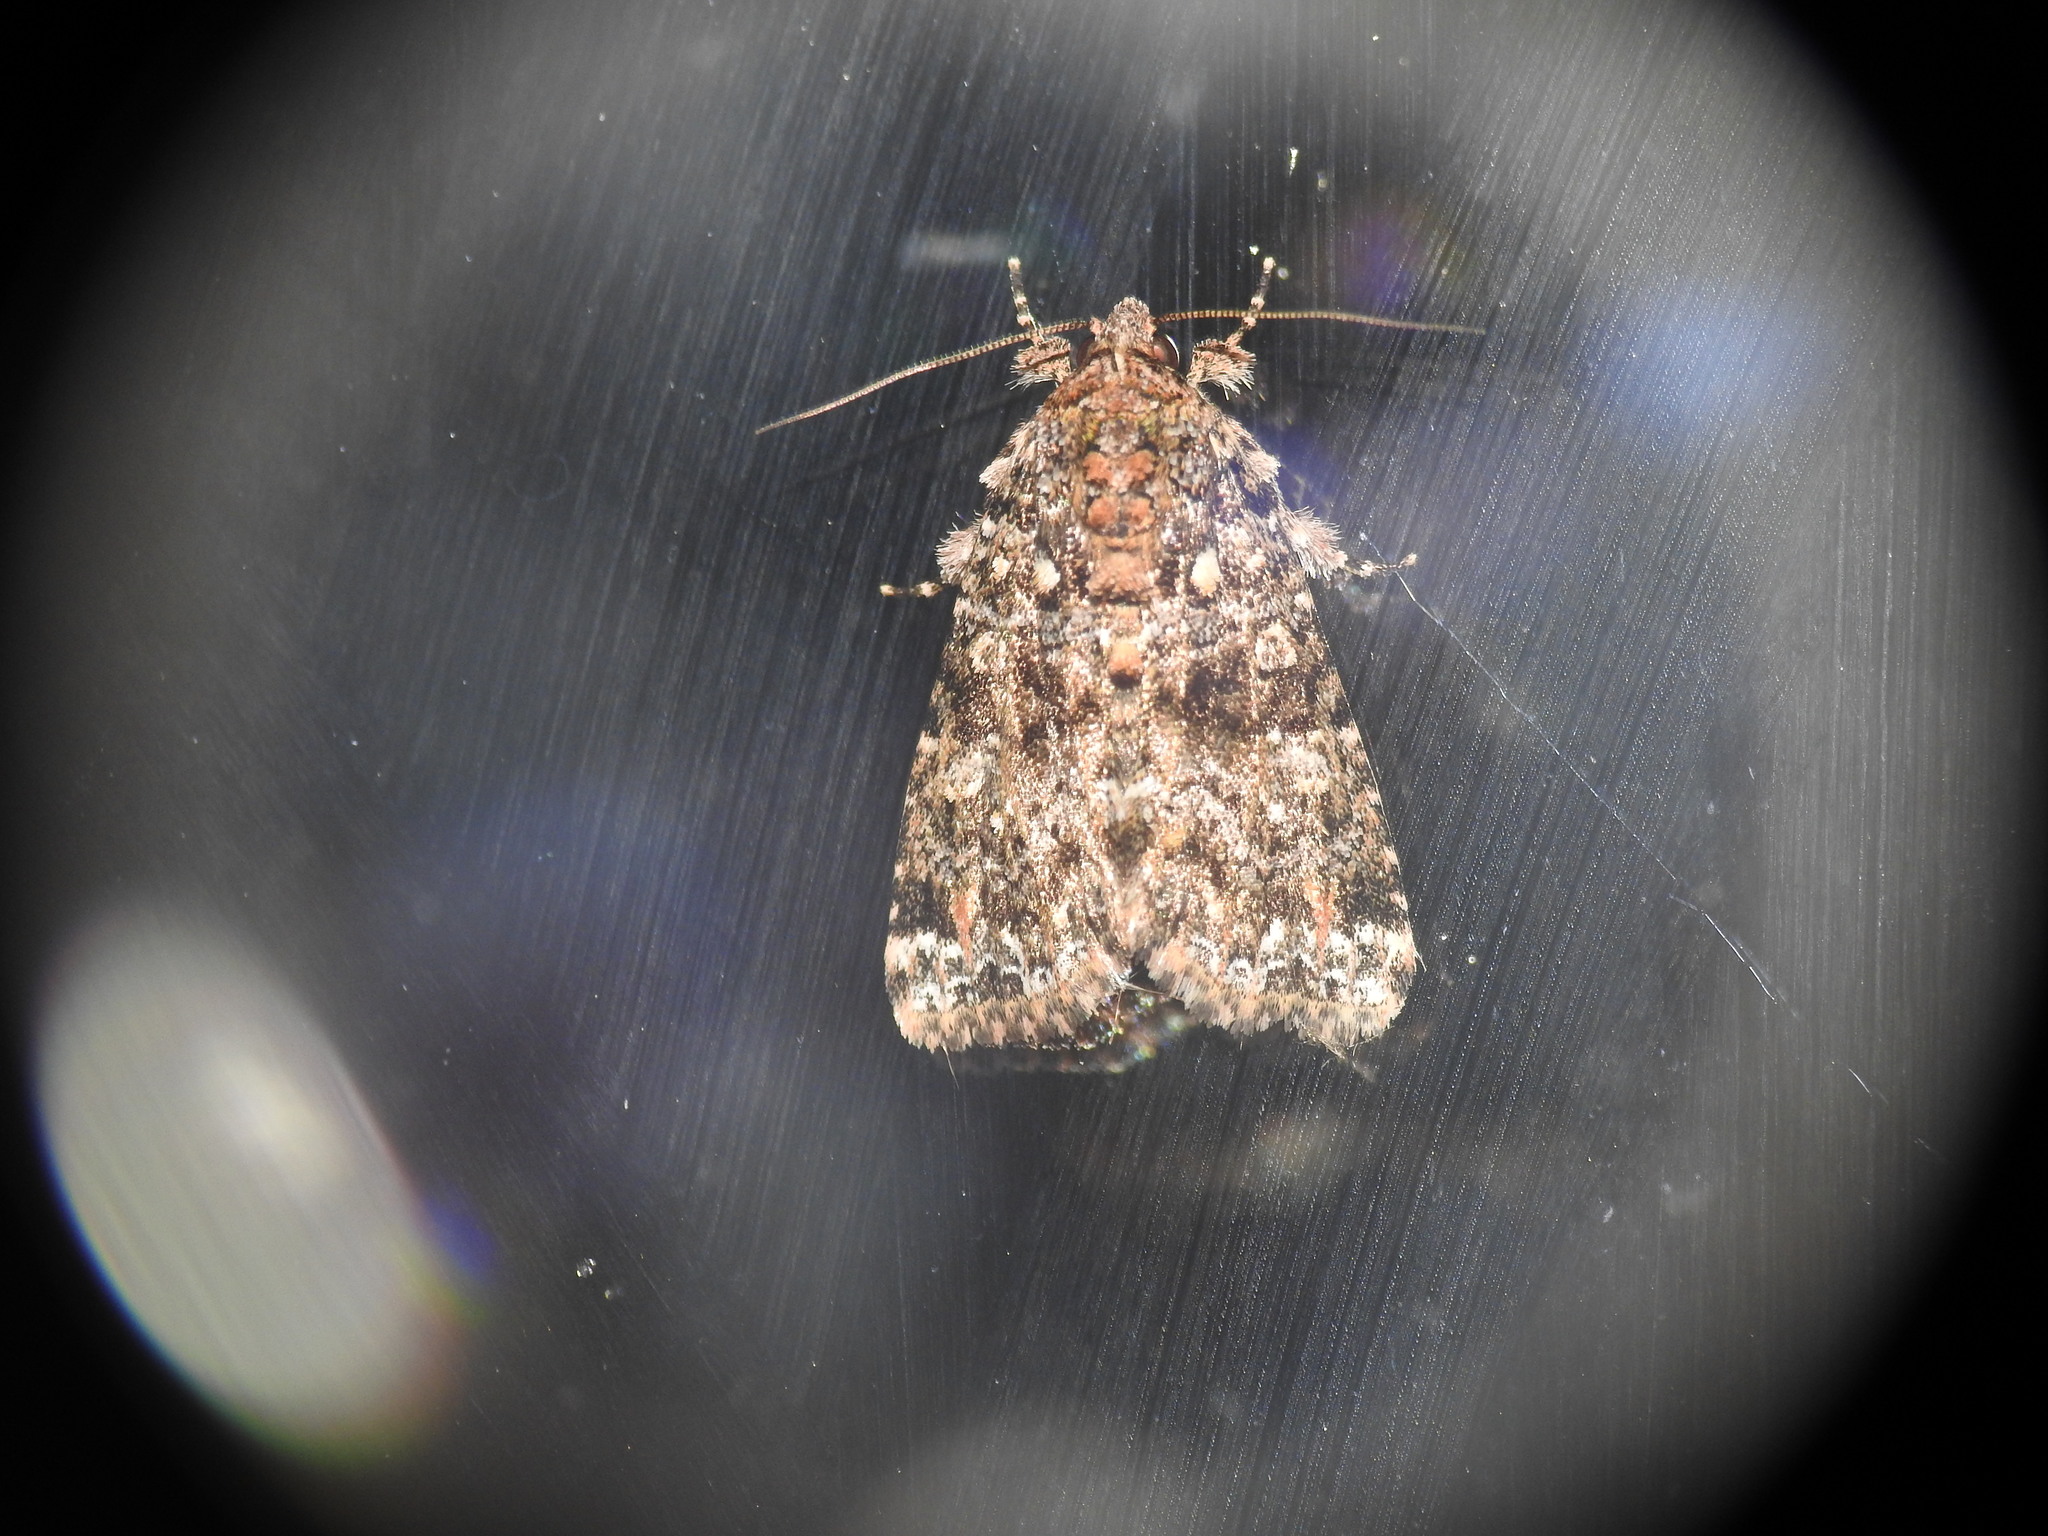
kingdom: Animalia
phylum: Arthropoda
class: Insecta
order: Lepidoptera
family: Noctuidae
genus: Callopistria
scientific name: Callopistria latreillei
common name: Latreille's latin
